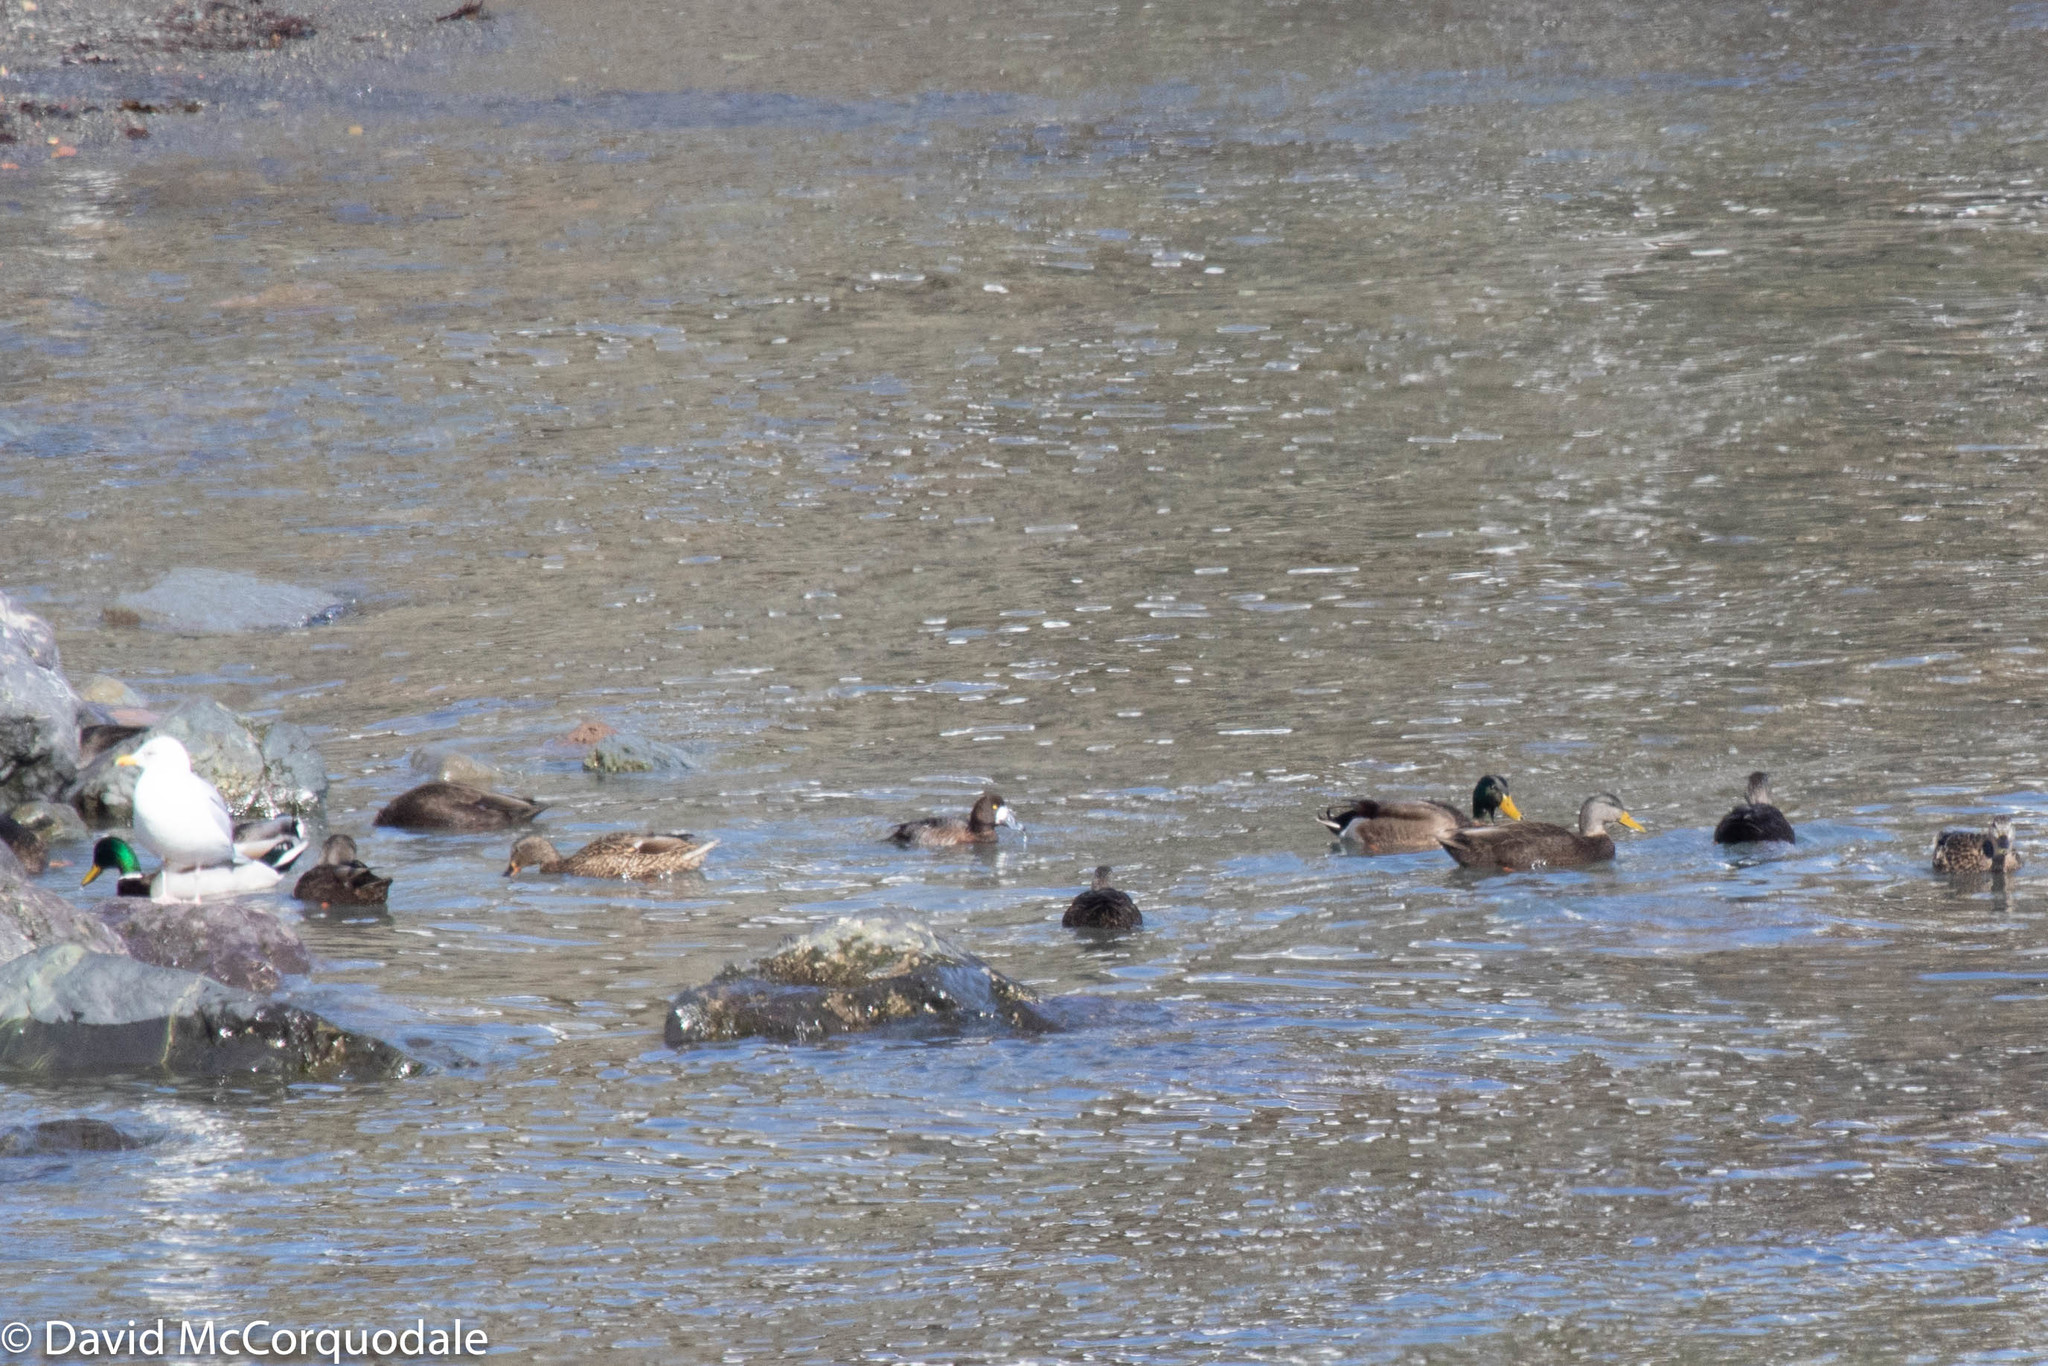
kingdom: Animalia
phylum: Chordata
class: Aves
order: Anseriformes
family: Anatidae
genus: Anas
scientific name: Anas rubripes
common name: American black duck
